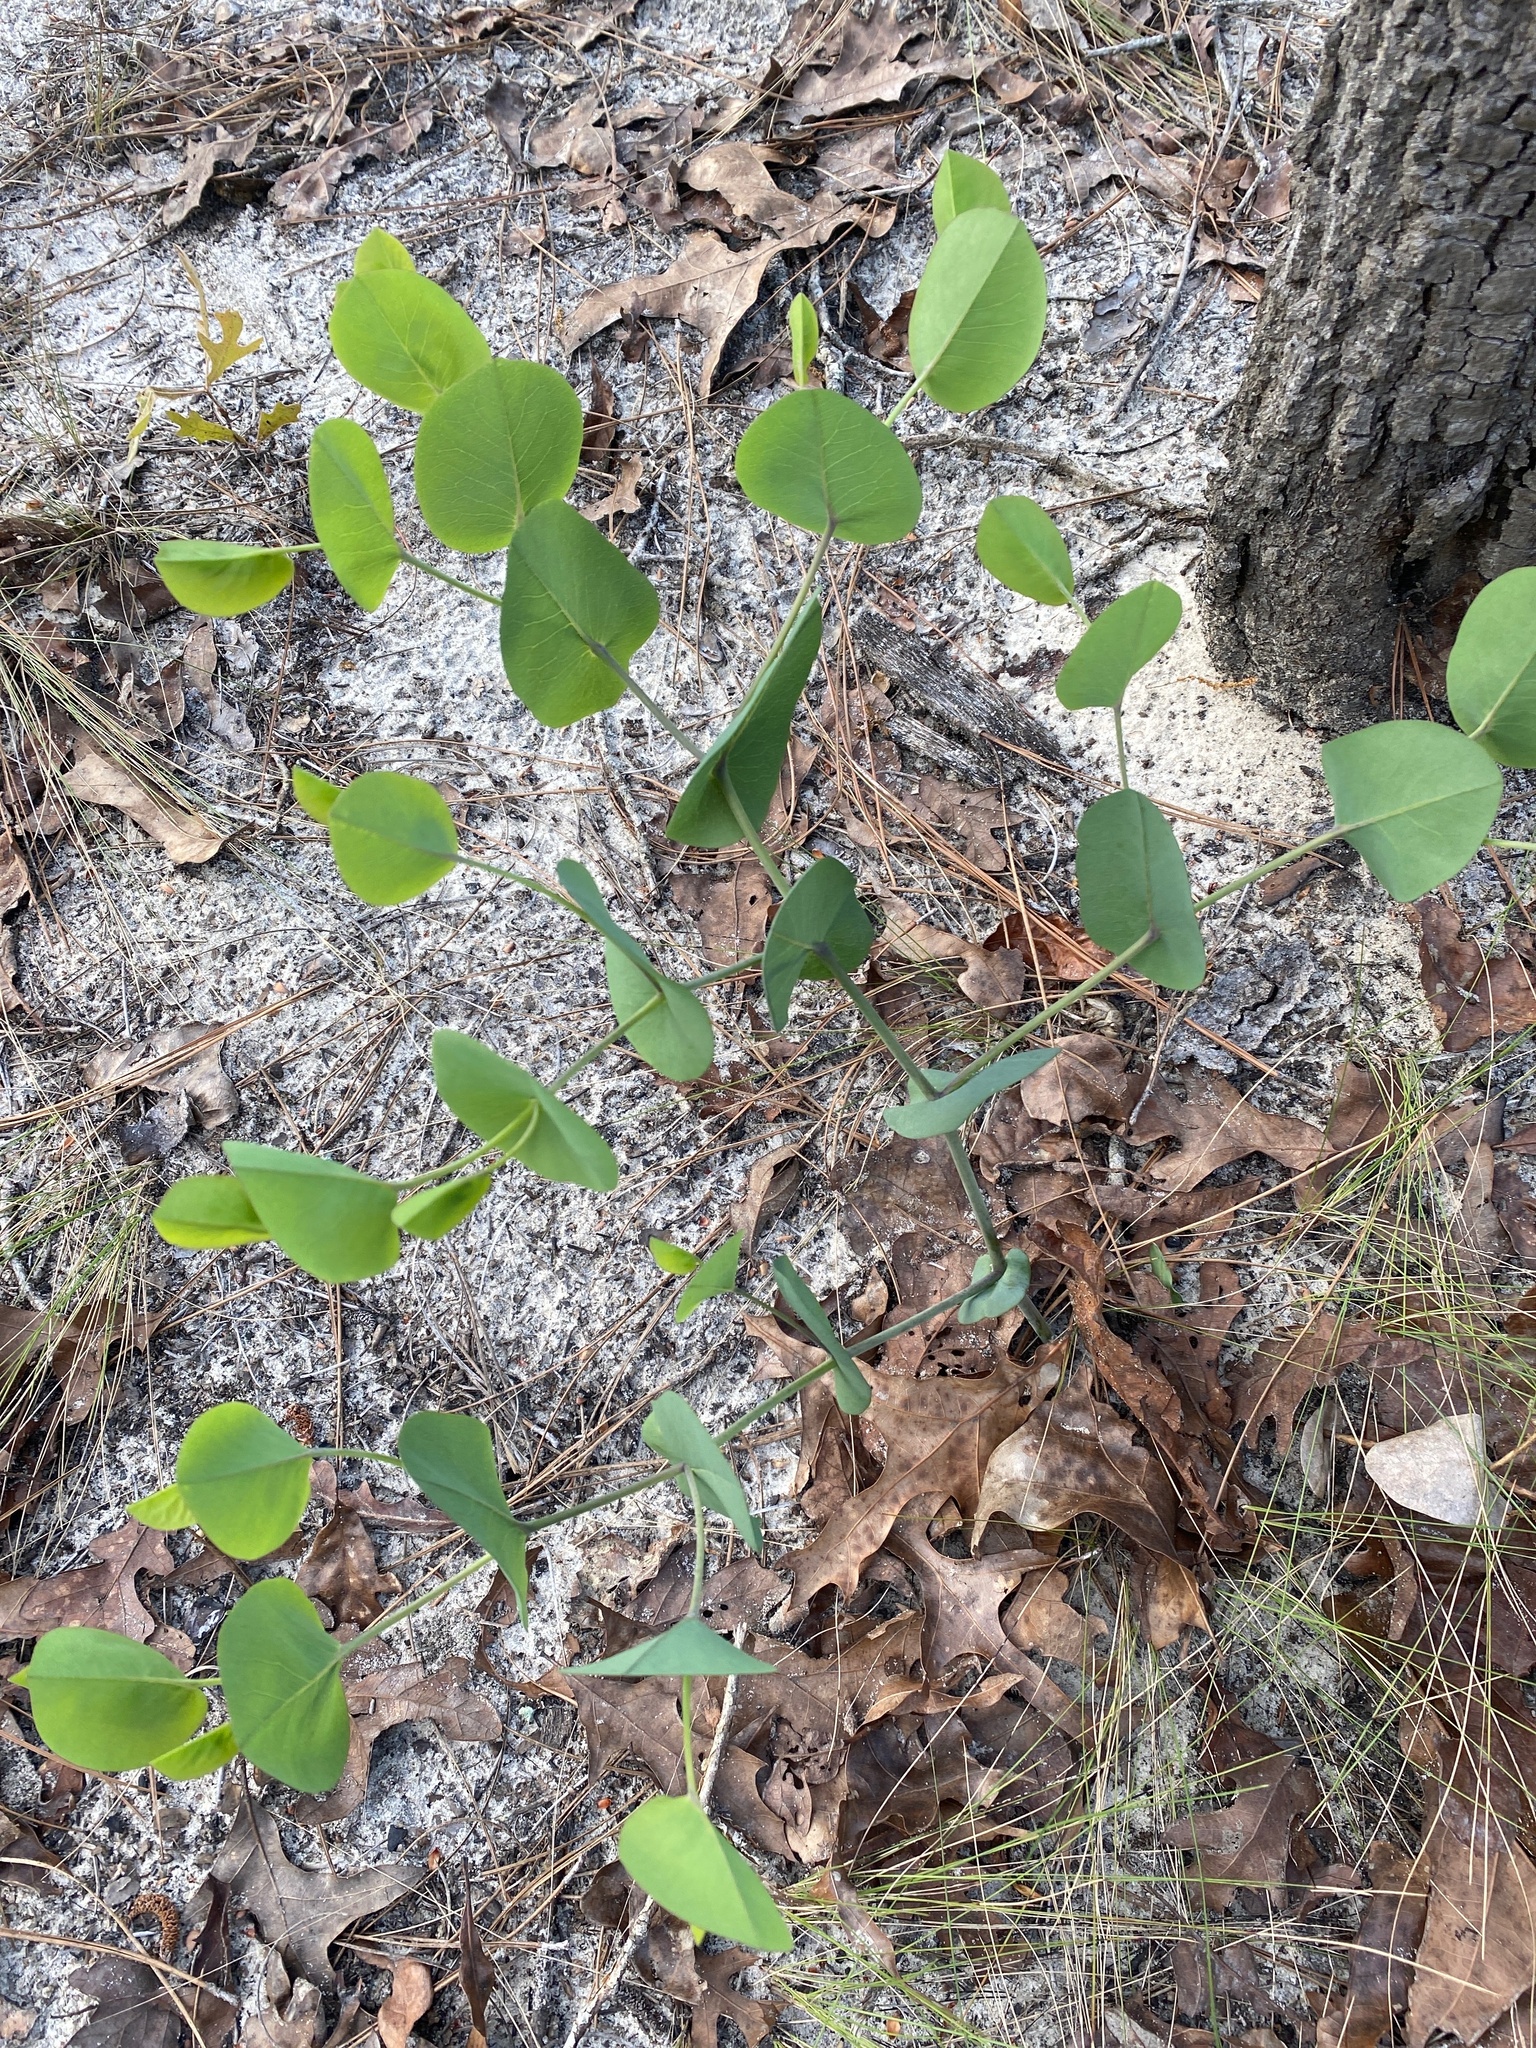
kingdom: Plantae
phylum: Tracheophyta
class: Magnoliopsida
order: Fabales
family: Fabaceae
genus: Baptisia
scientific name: Baptisia perfoliata
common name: Catbells
